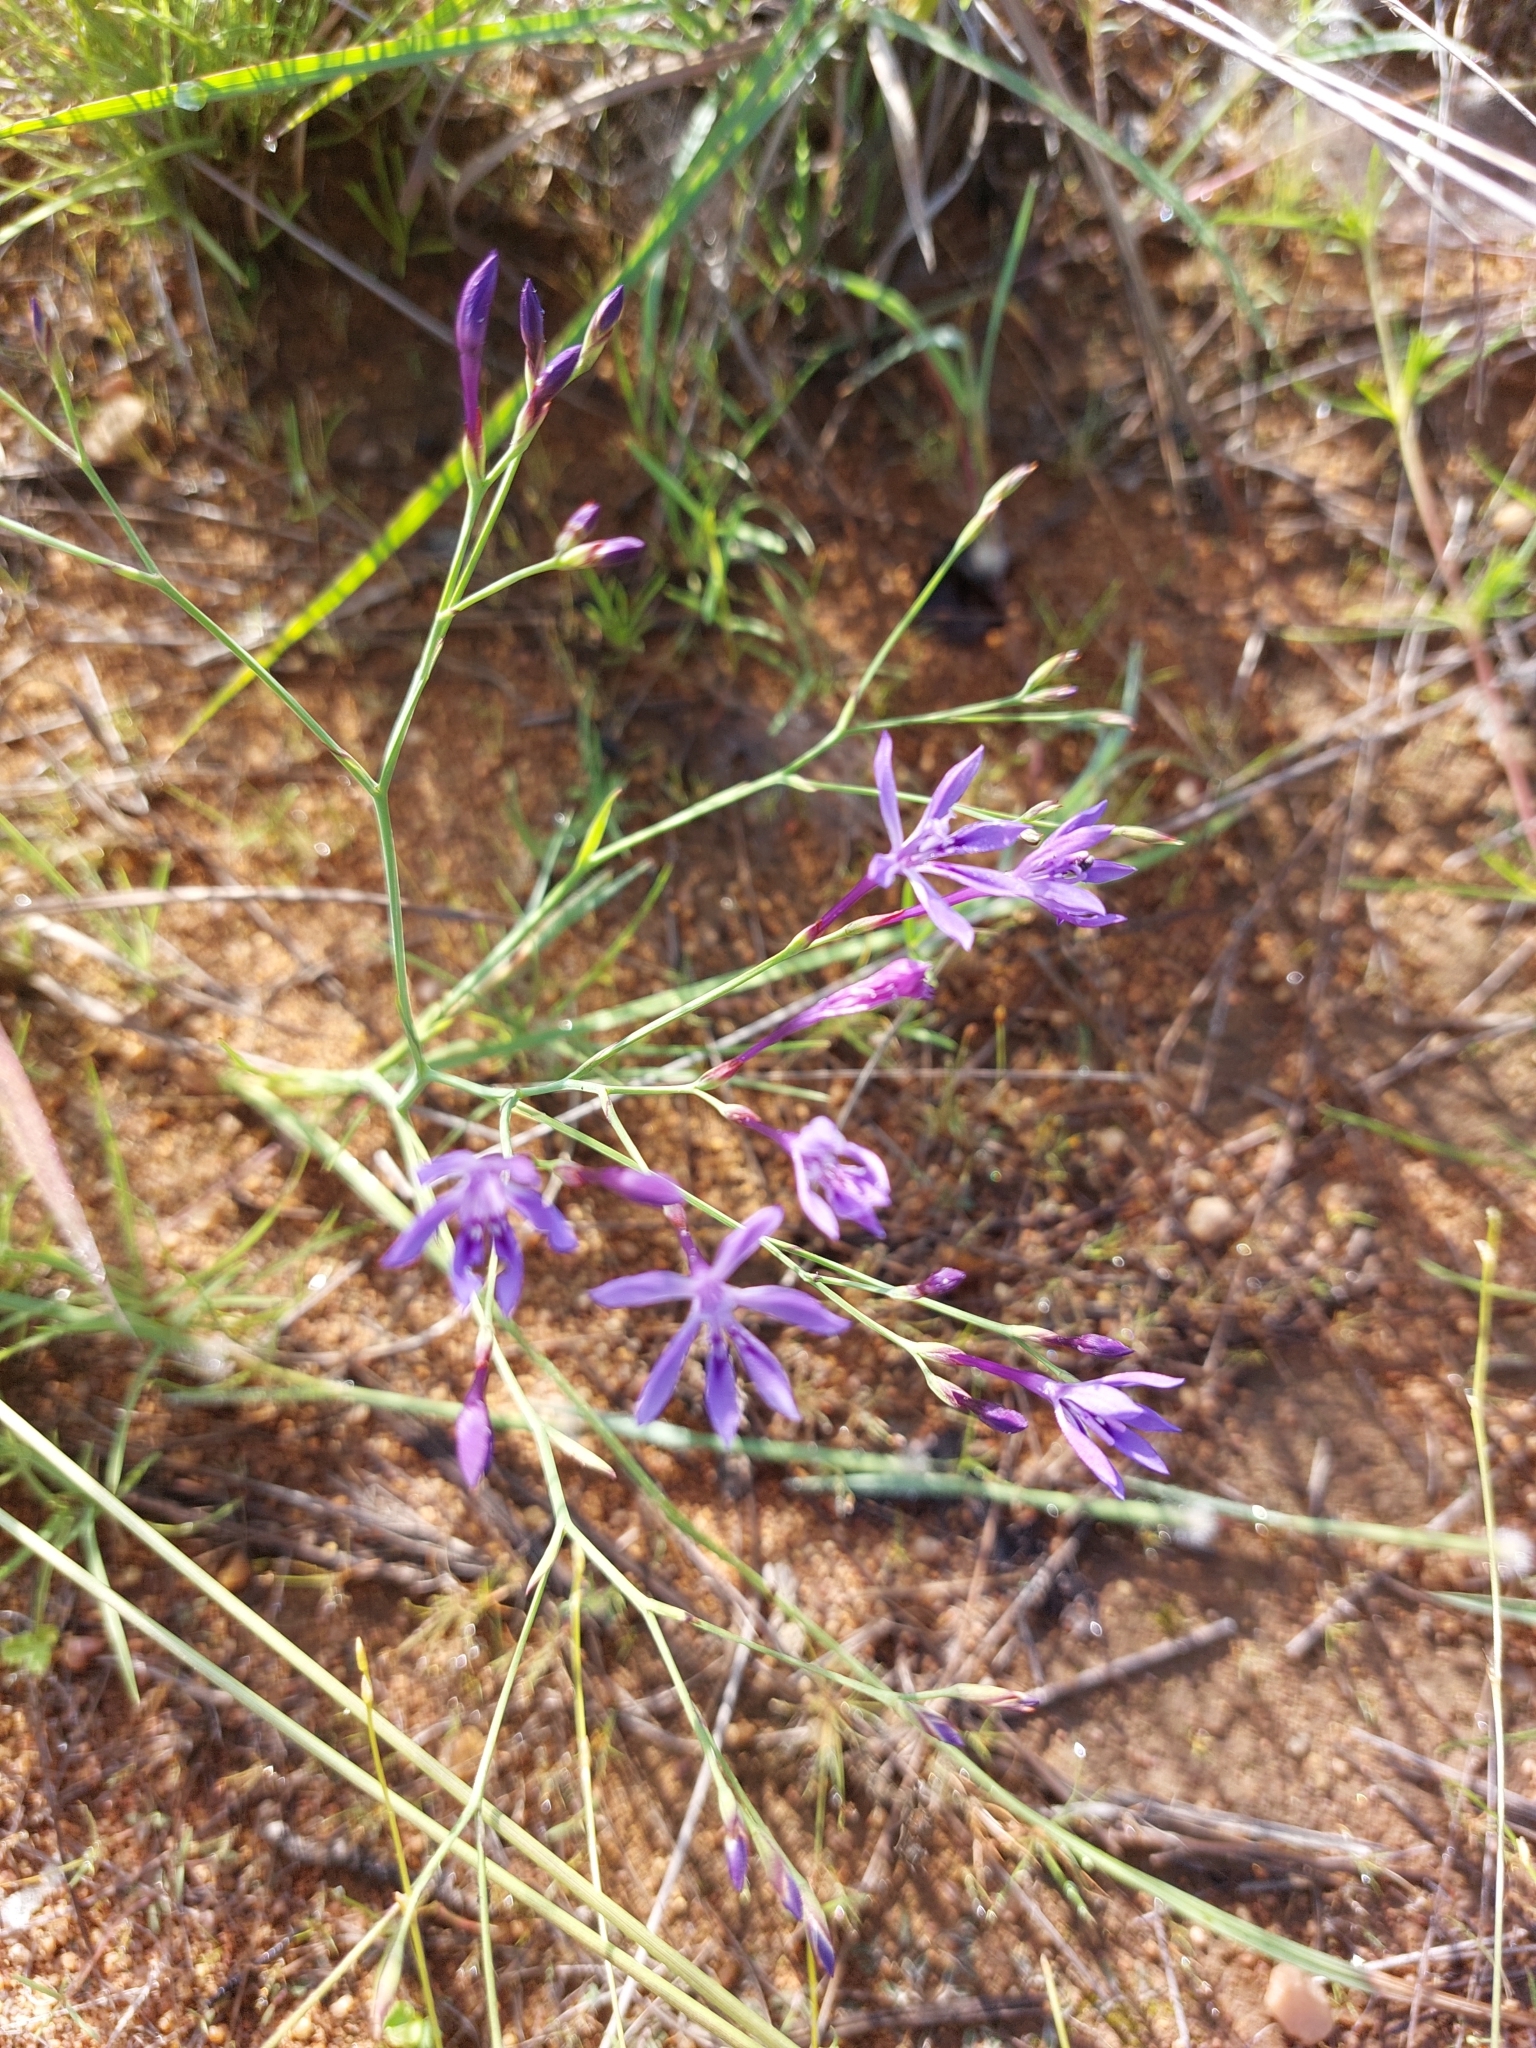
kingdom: Plantae
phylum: Tracheophyta
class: Liliopsida
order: Asparagales
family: Iridaceae
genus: Afrosolen
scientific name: Afrosolen sandersonii
